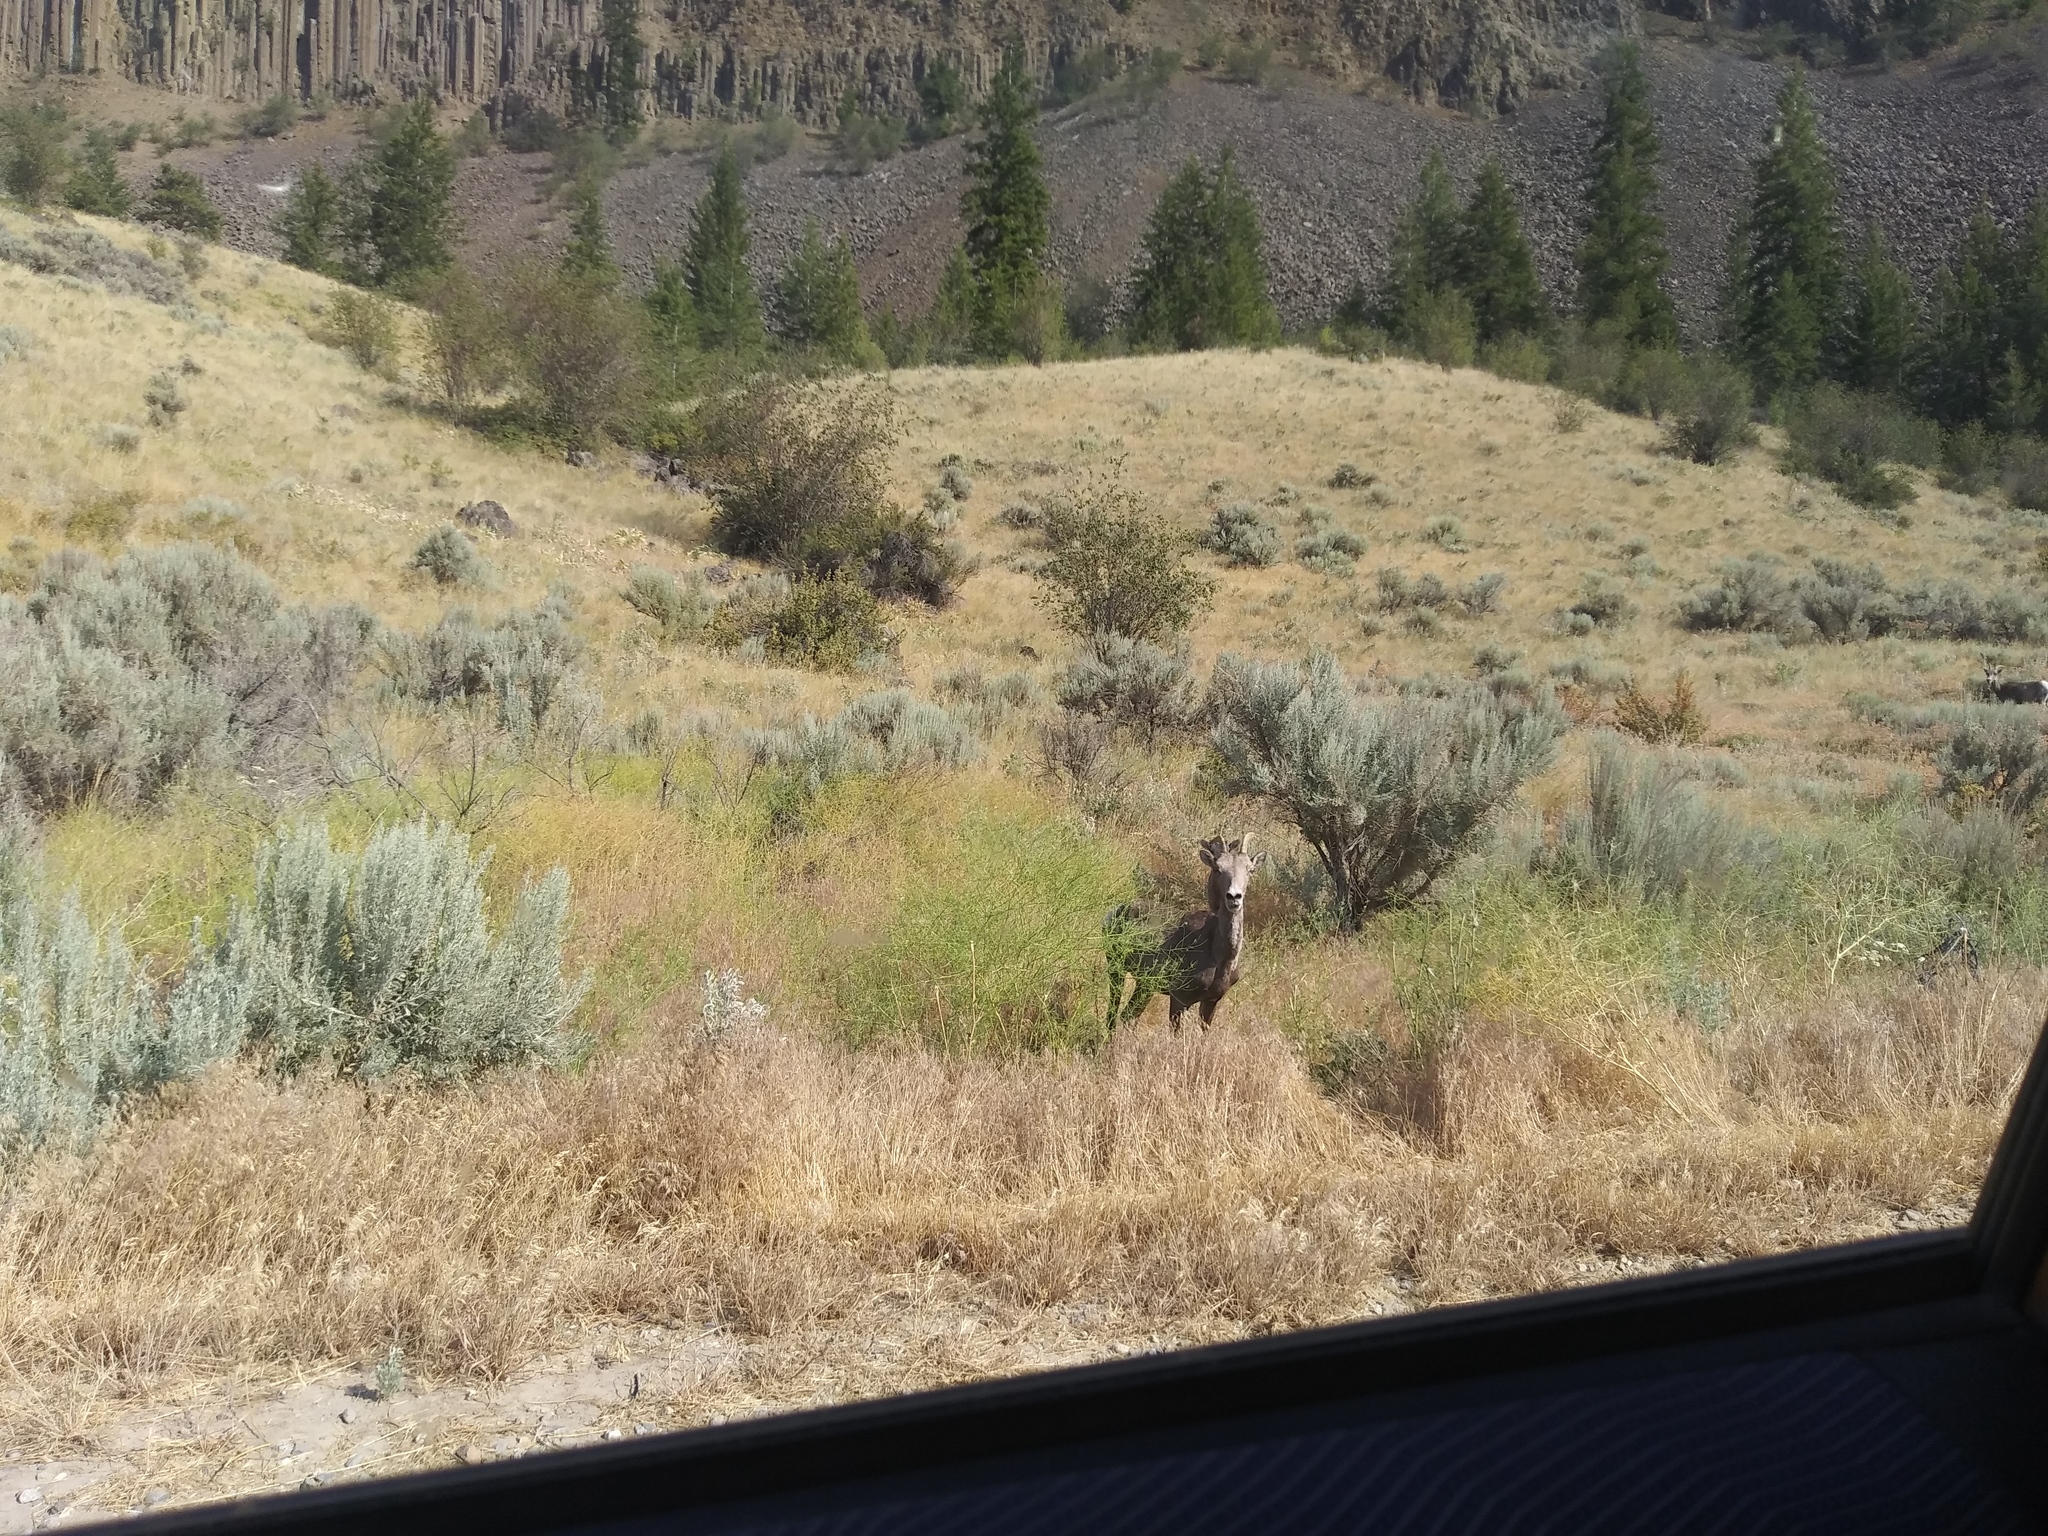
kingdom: Animalia
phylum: Chordata
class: Mammalia
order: Artiodactyla
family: Bovidae
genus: Ovis
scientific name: Ovis canadensis
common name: Bighorn sheep
